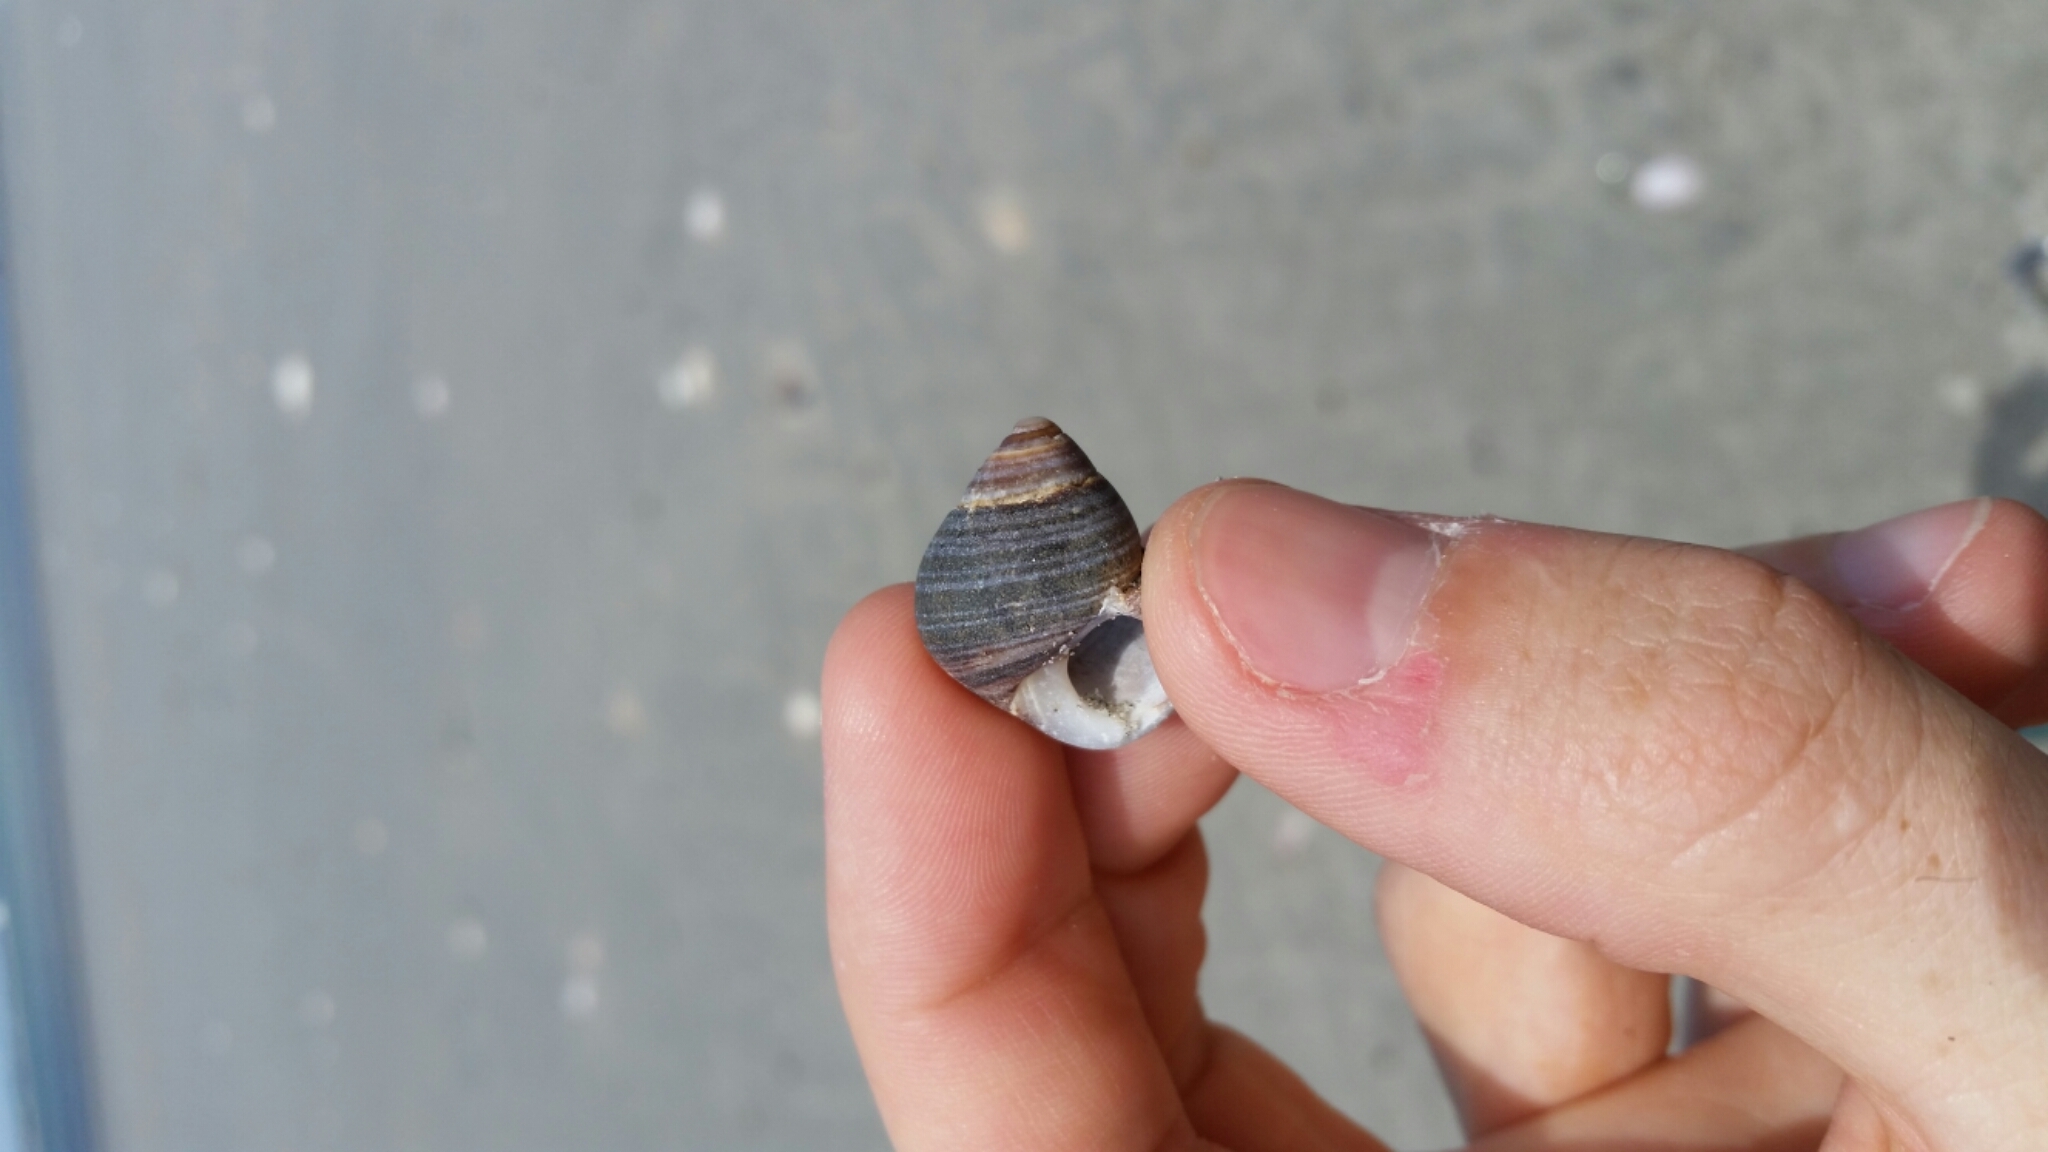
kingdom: Animalia
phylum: Mollusca
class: Gastropoda
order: Littorinimorpha
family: Littorinidae
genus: Littorina
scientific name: Littorina littorea
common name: Common periwinkle
